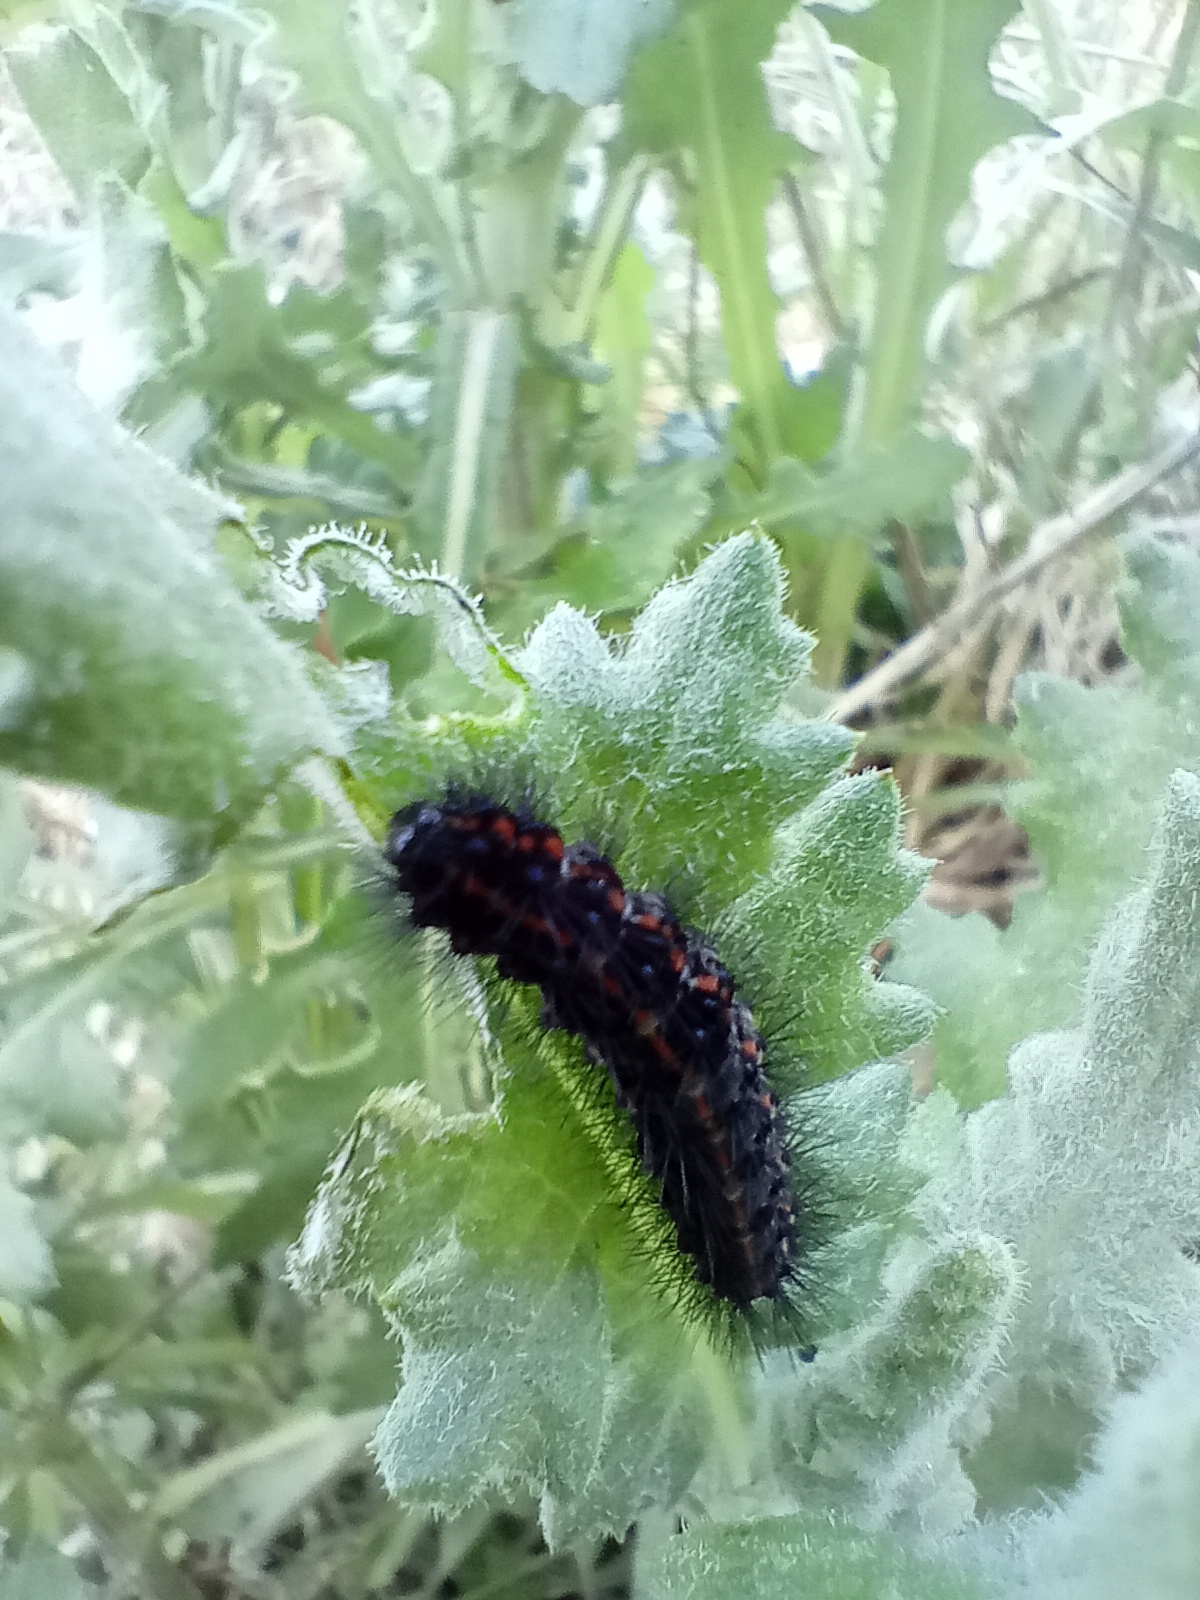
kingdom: Animalia
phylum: Arthropoda
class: Insecta
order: Lepidoptera
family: Erebidae
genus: Nyctemera
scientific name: Nyctemera annulatum
